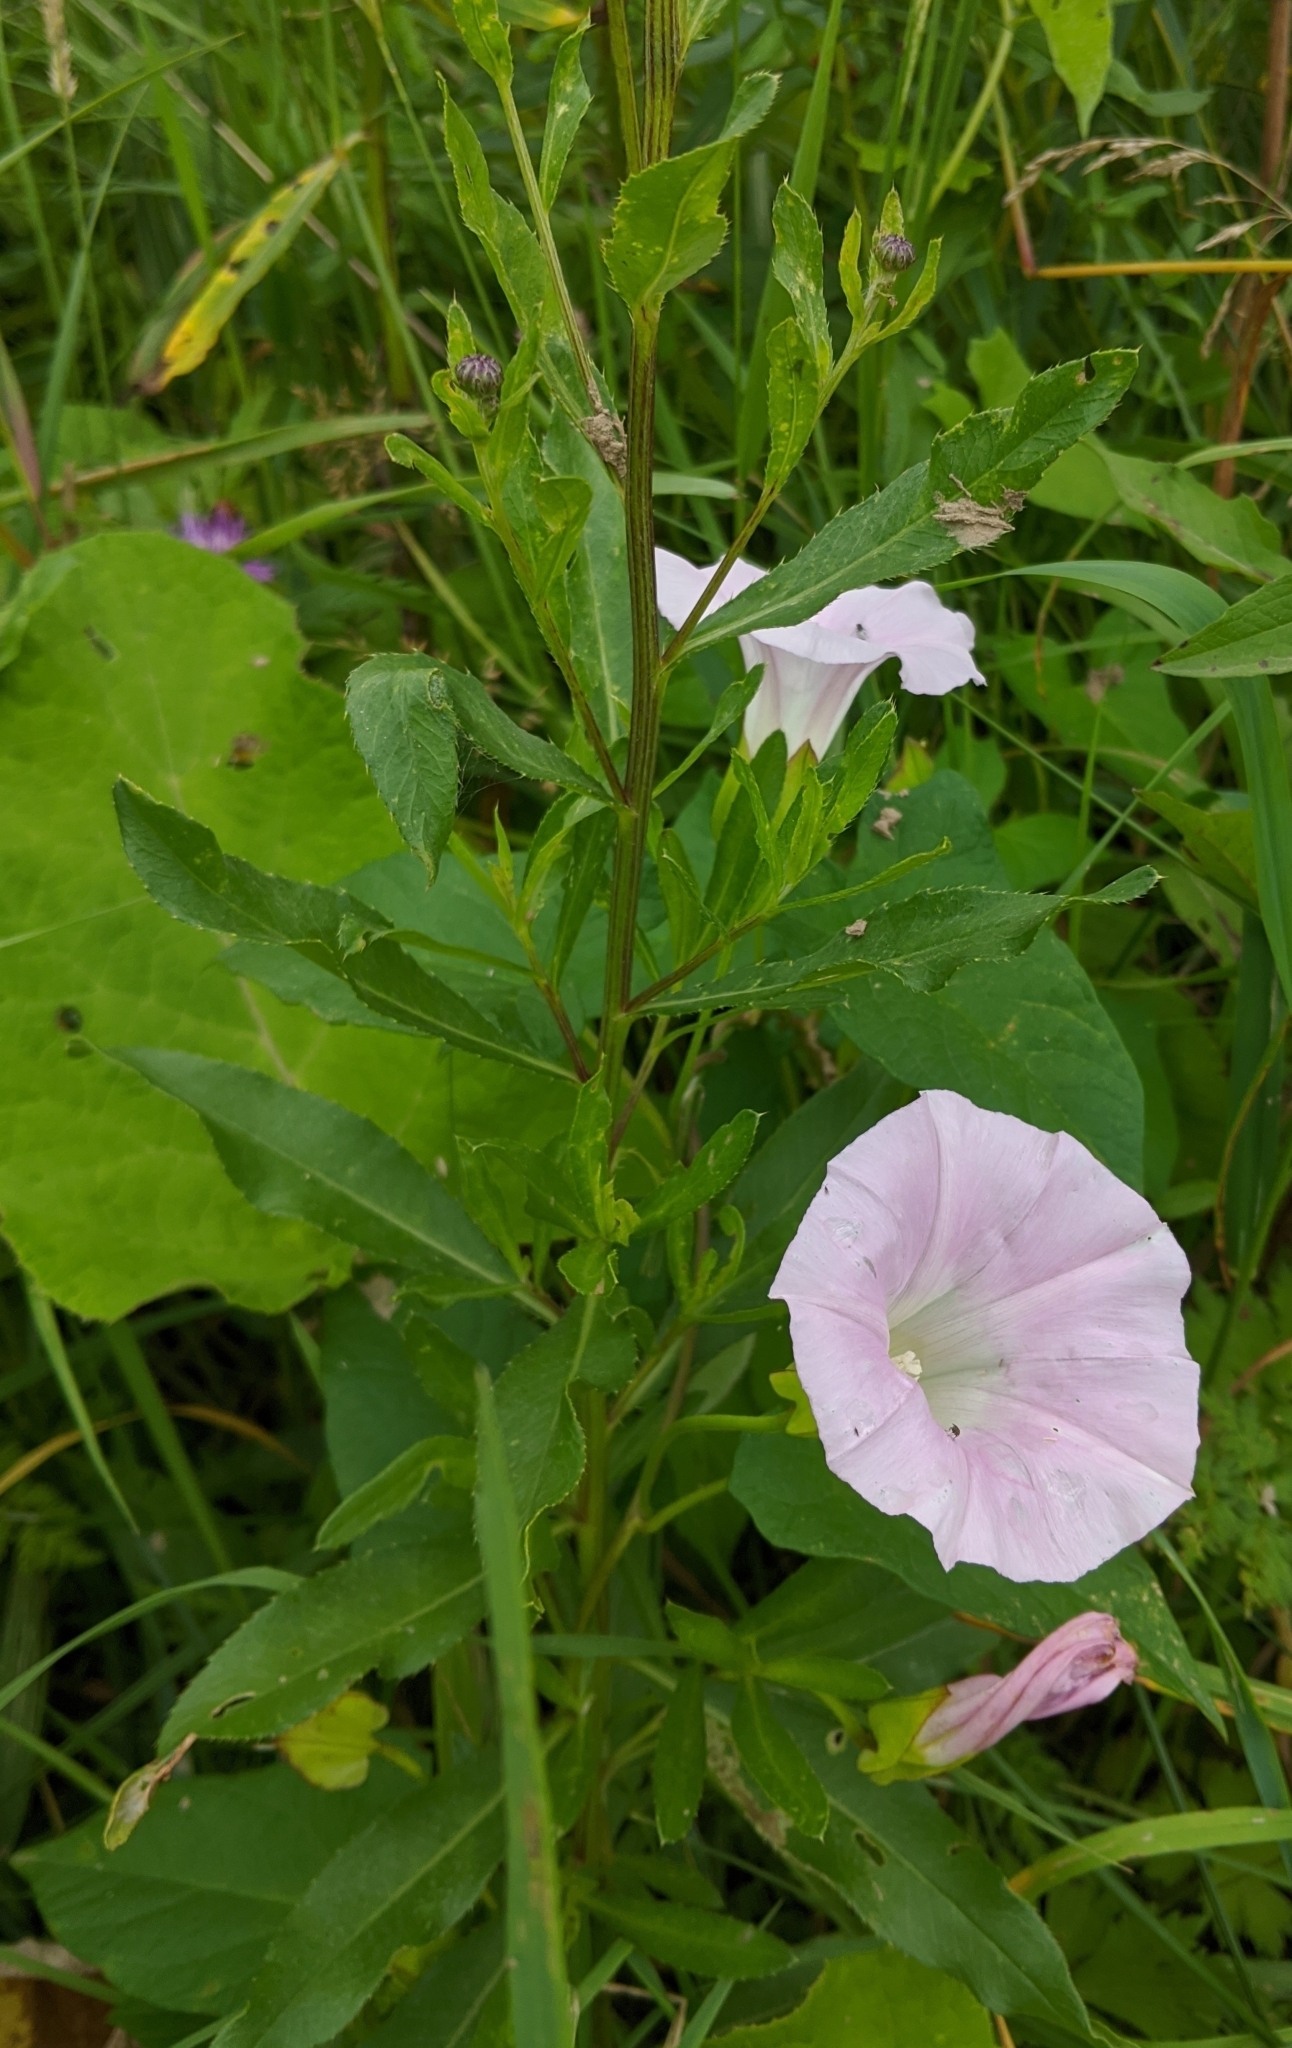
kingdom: Plantae
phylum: Tracheophyta
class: Magnoliopsida
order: Solanales
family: Convolvulaceae
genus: Calystegia
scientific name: Calystegia sepium
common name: Hedge bindweed
